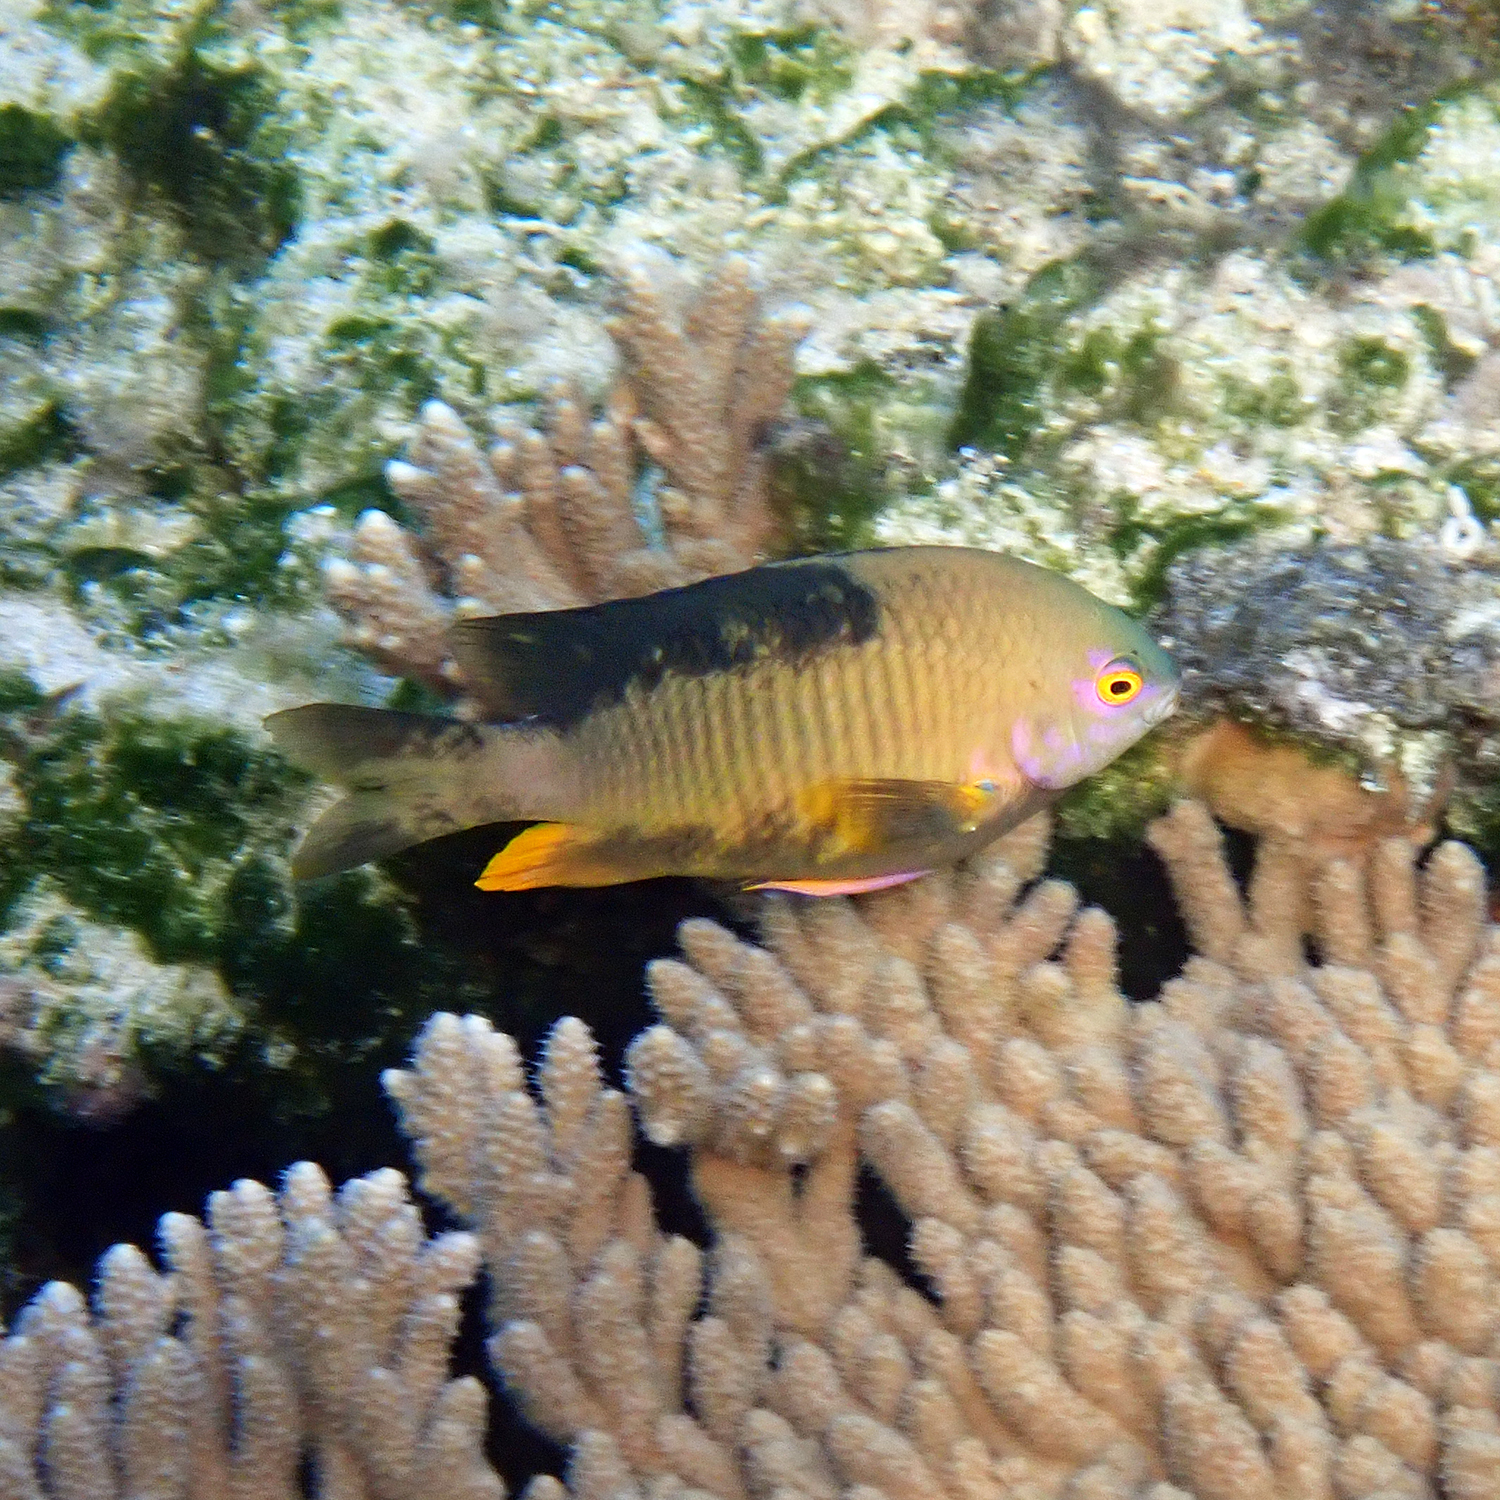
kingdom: Animalia
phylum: Chordata
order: Perciformes
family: Pomacentridae
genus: Stegastes
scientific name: Stegastes gascoynei
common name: Coral sea gregory
